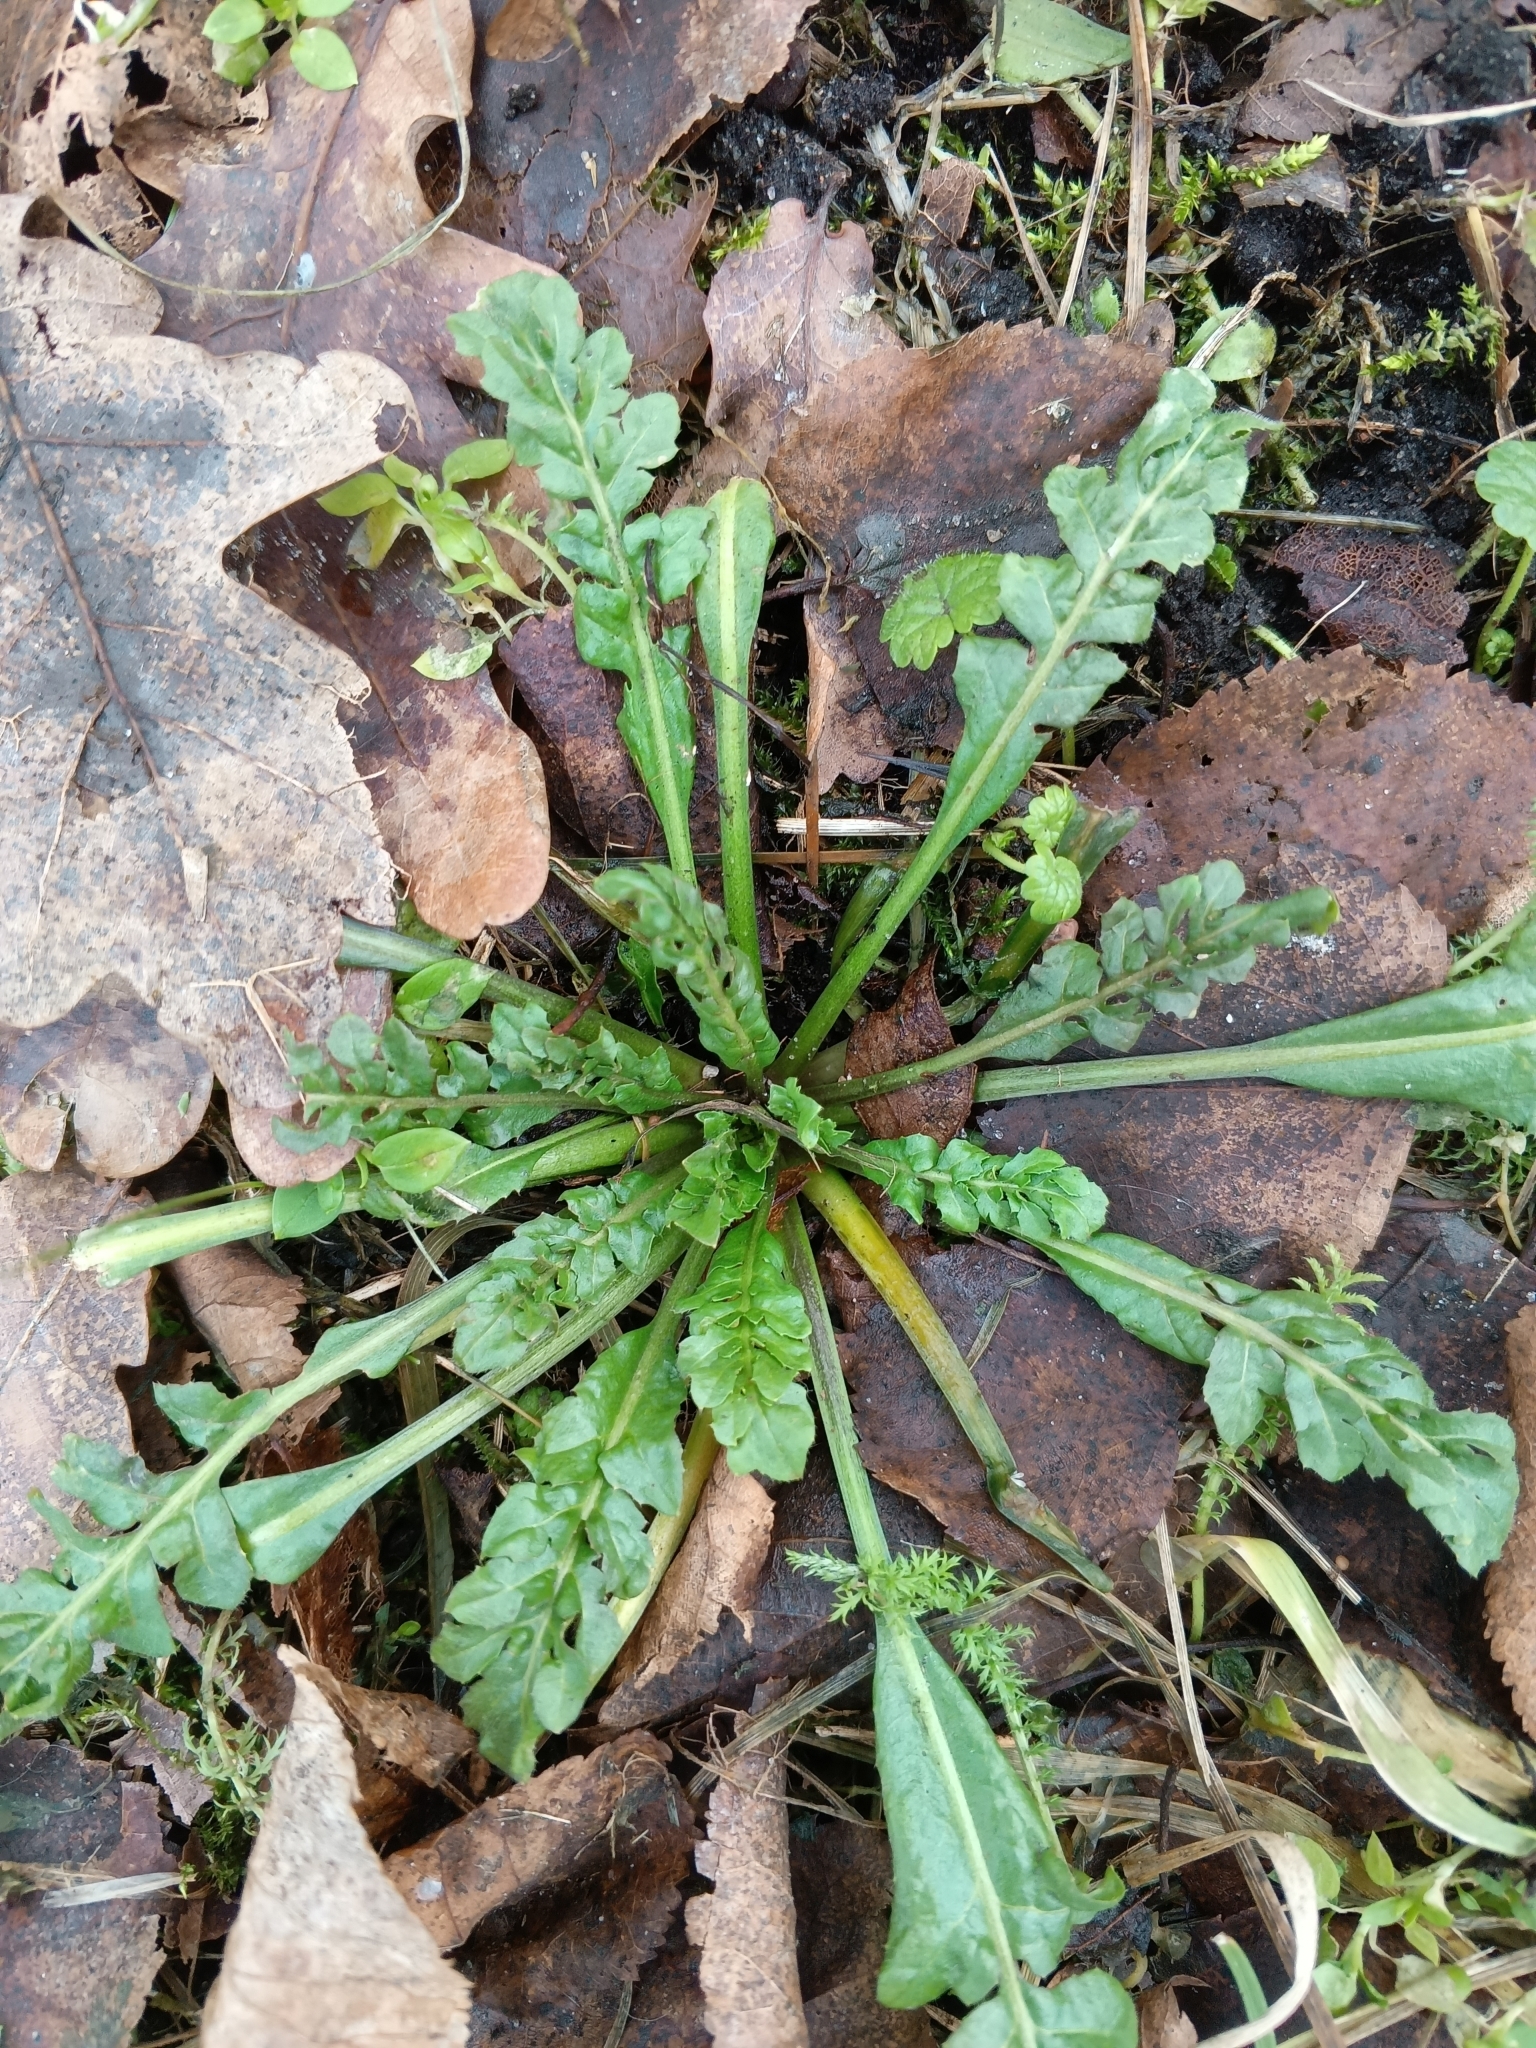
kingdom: Plantae
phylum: Tracheophyta
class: Magnoliopsida
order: Brassicales
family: Brassicaceae
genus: Capsella
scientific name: Capsella bursa-pastoris
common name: Shepherd's purse
